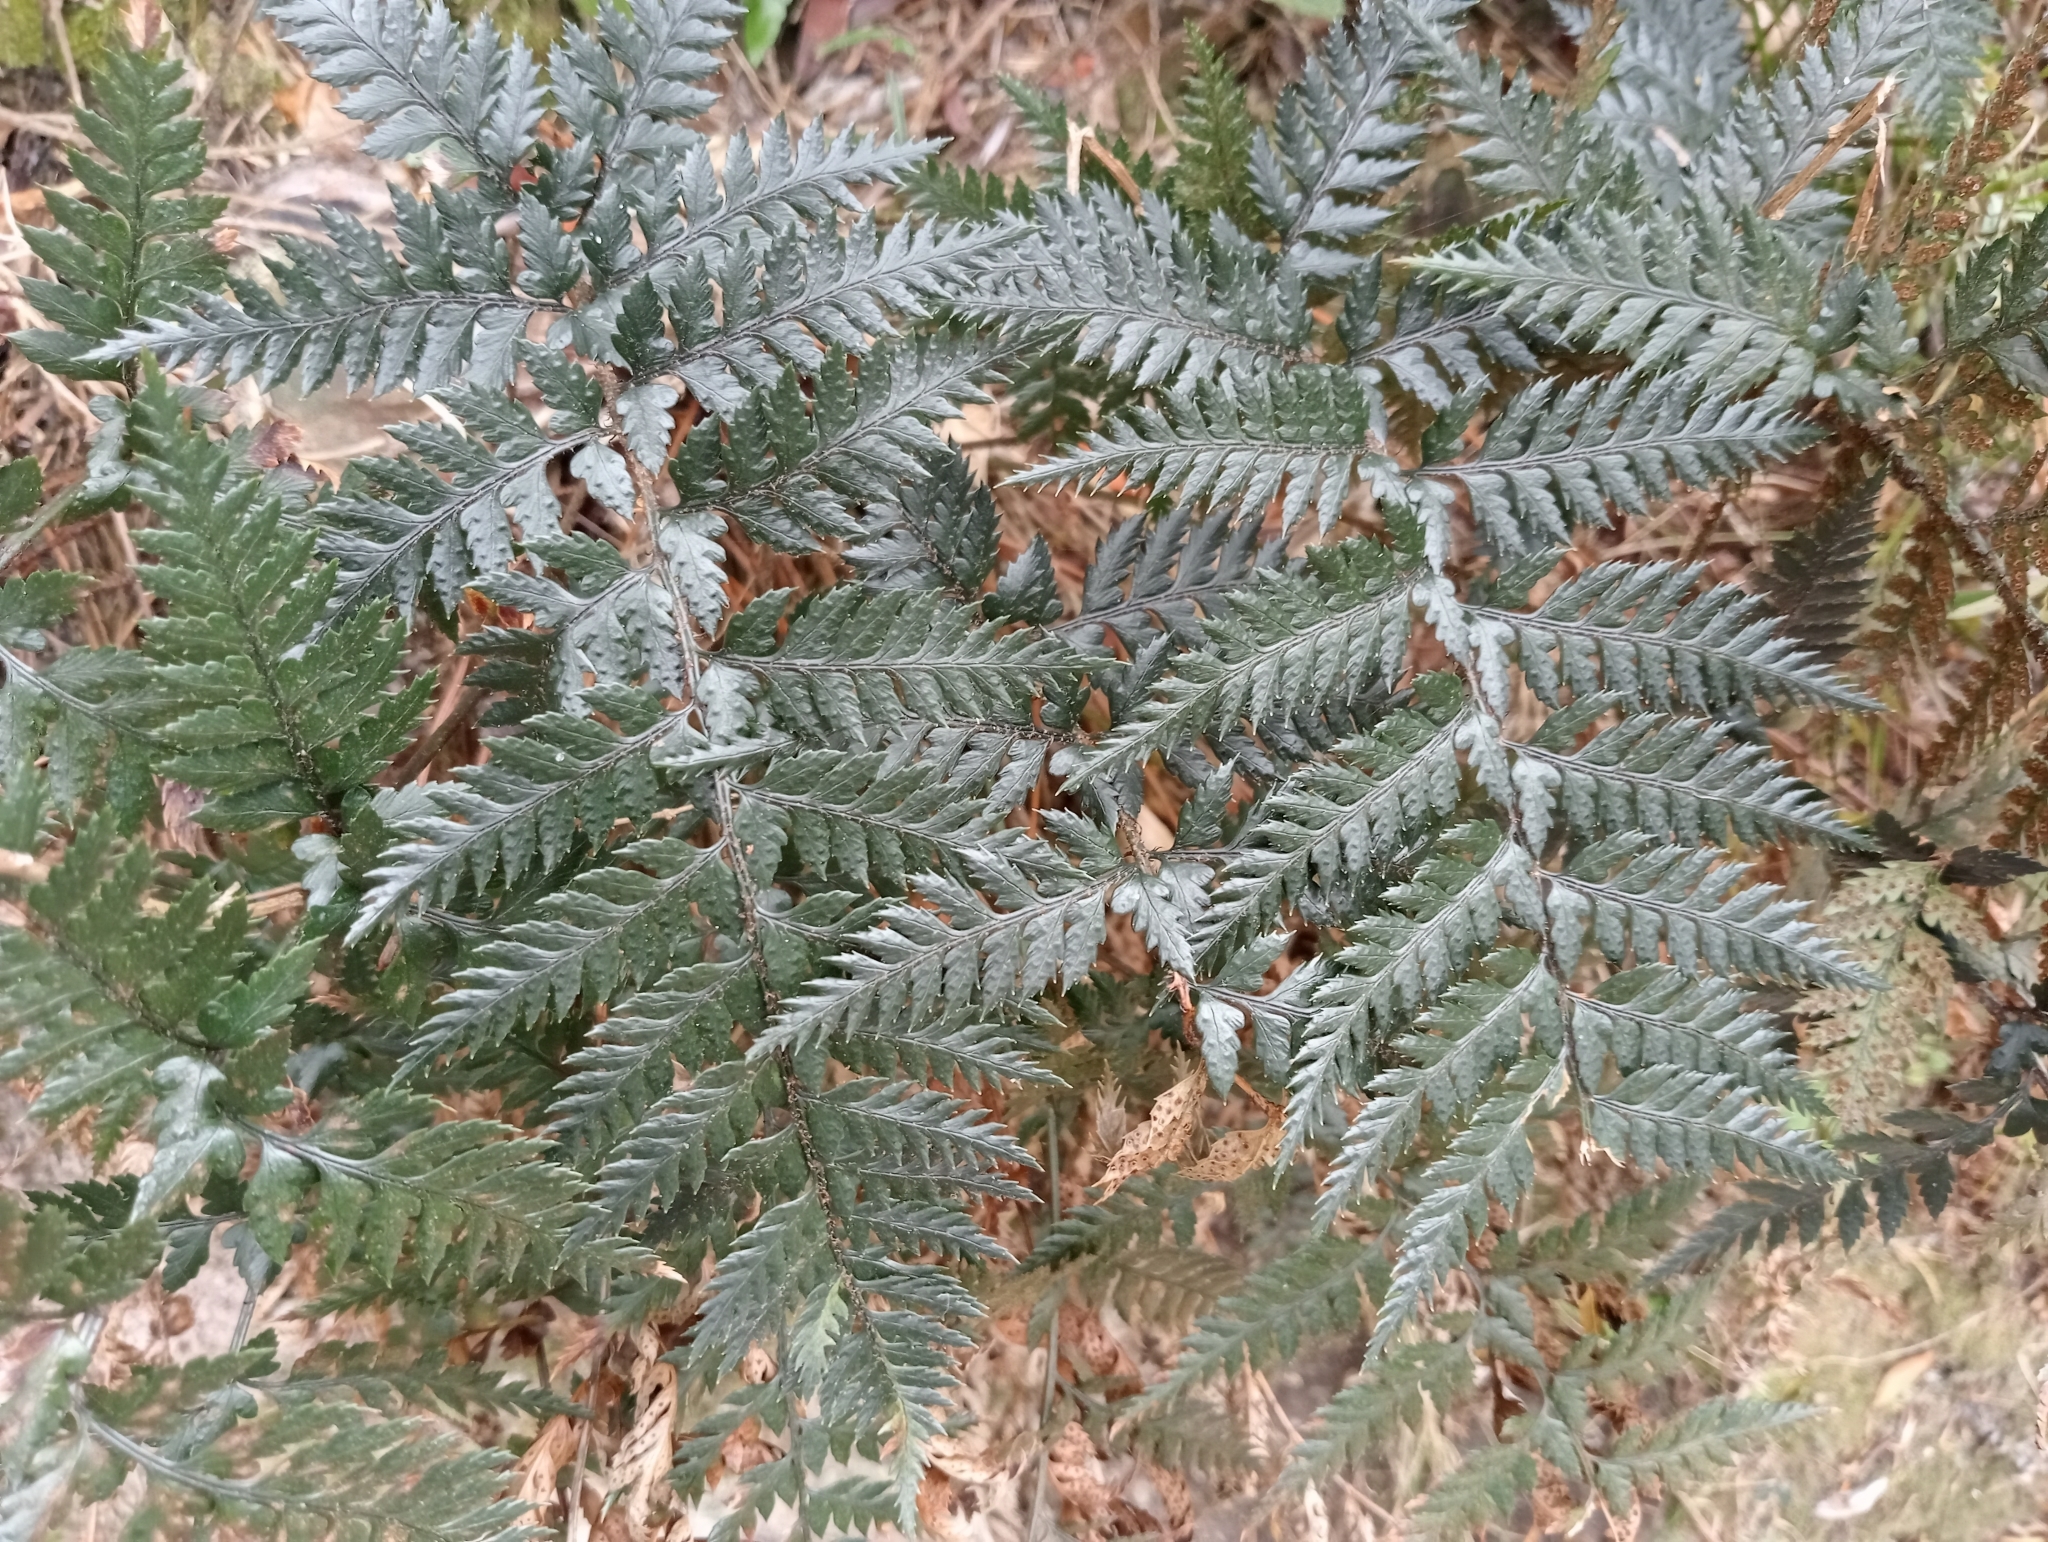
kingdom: Plantae
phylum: Tracheophyta
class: Polypodiopsida
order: Polypodiales
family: Dryopteridaceae
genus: Polystichum
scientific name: Polystichum neozelandicum
